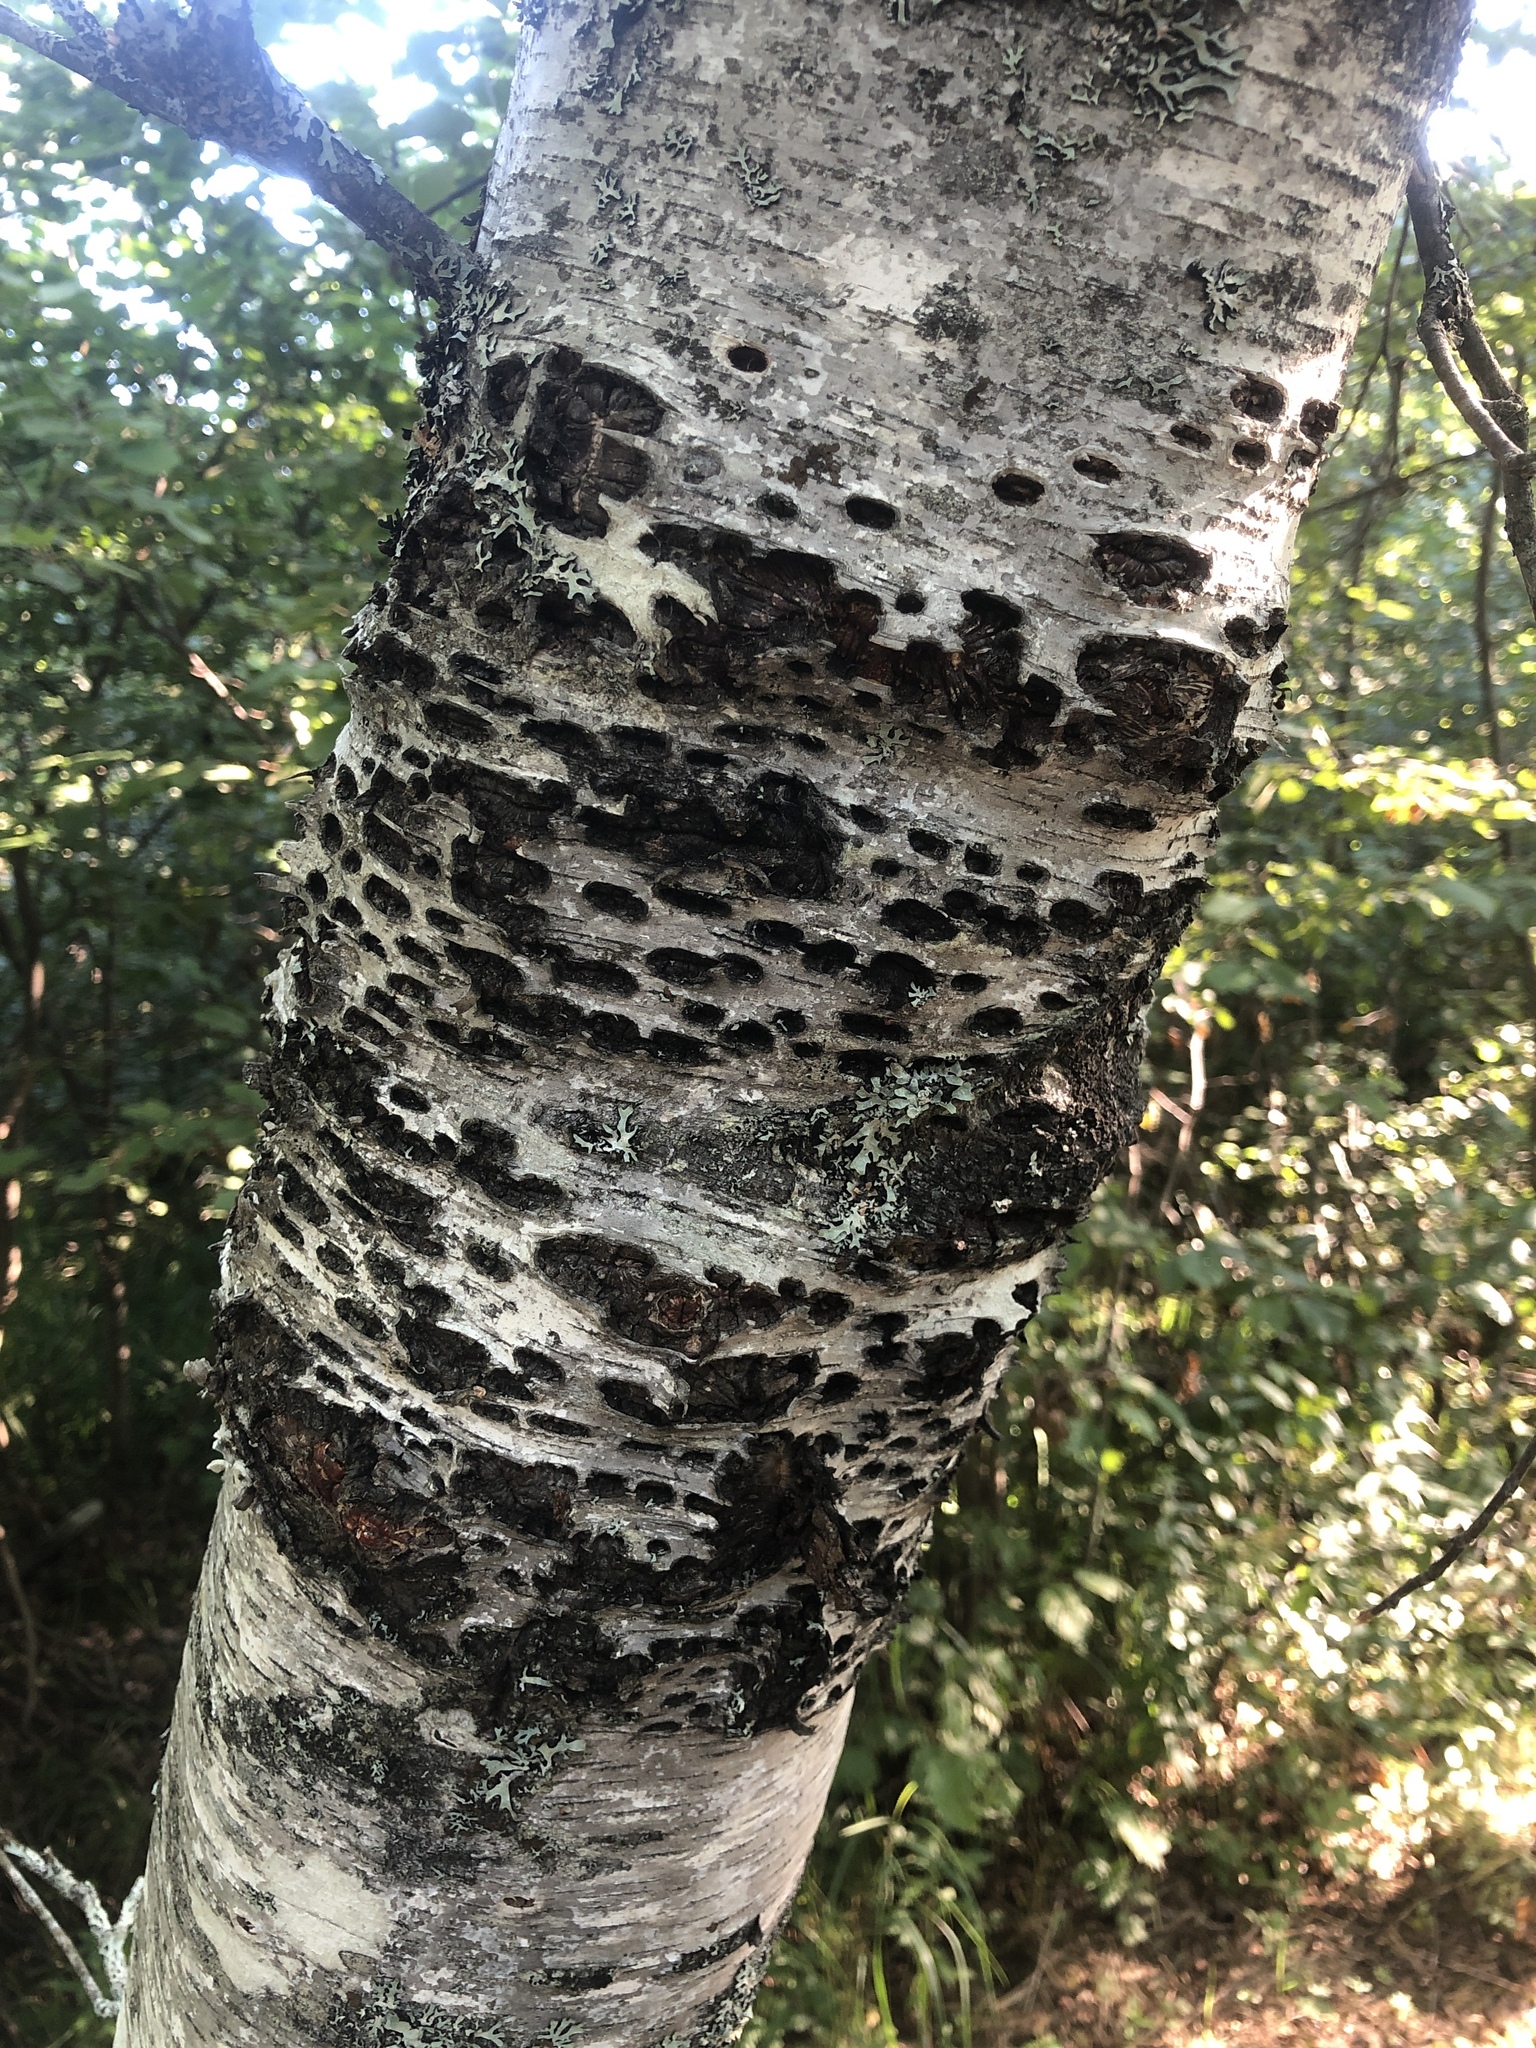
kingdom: Animalia
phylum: Chordata
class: Aves
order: Piciformes
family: Picidae
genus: Sphyrapicus
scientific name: Sphyrapicus varius
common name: Yellow-bellied sapsucker
